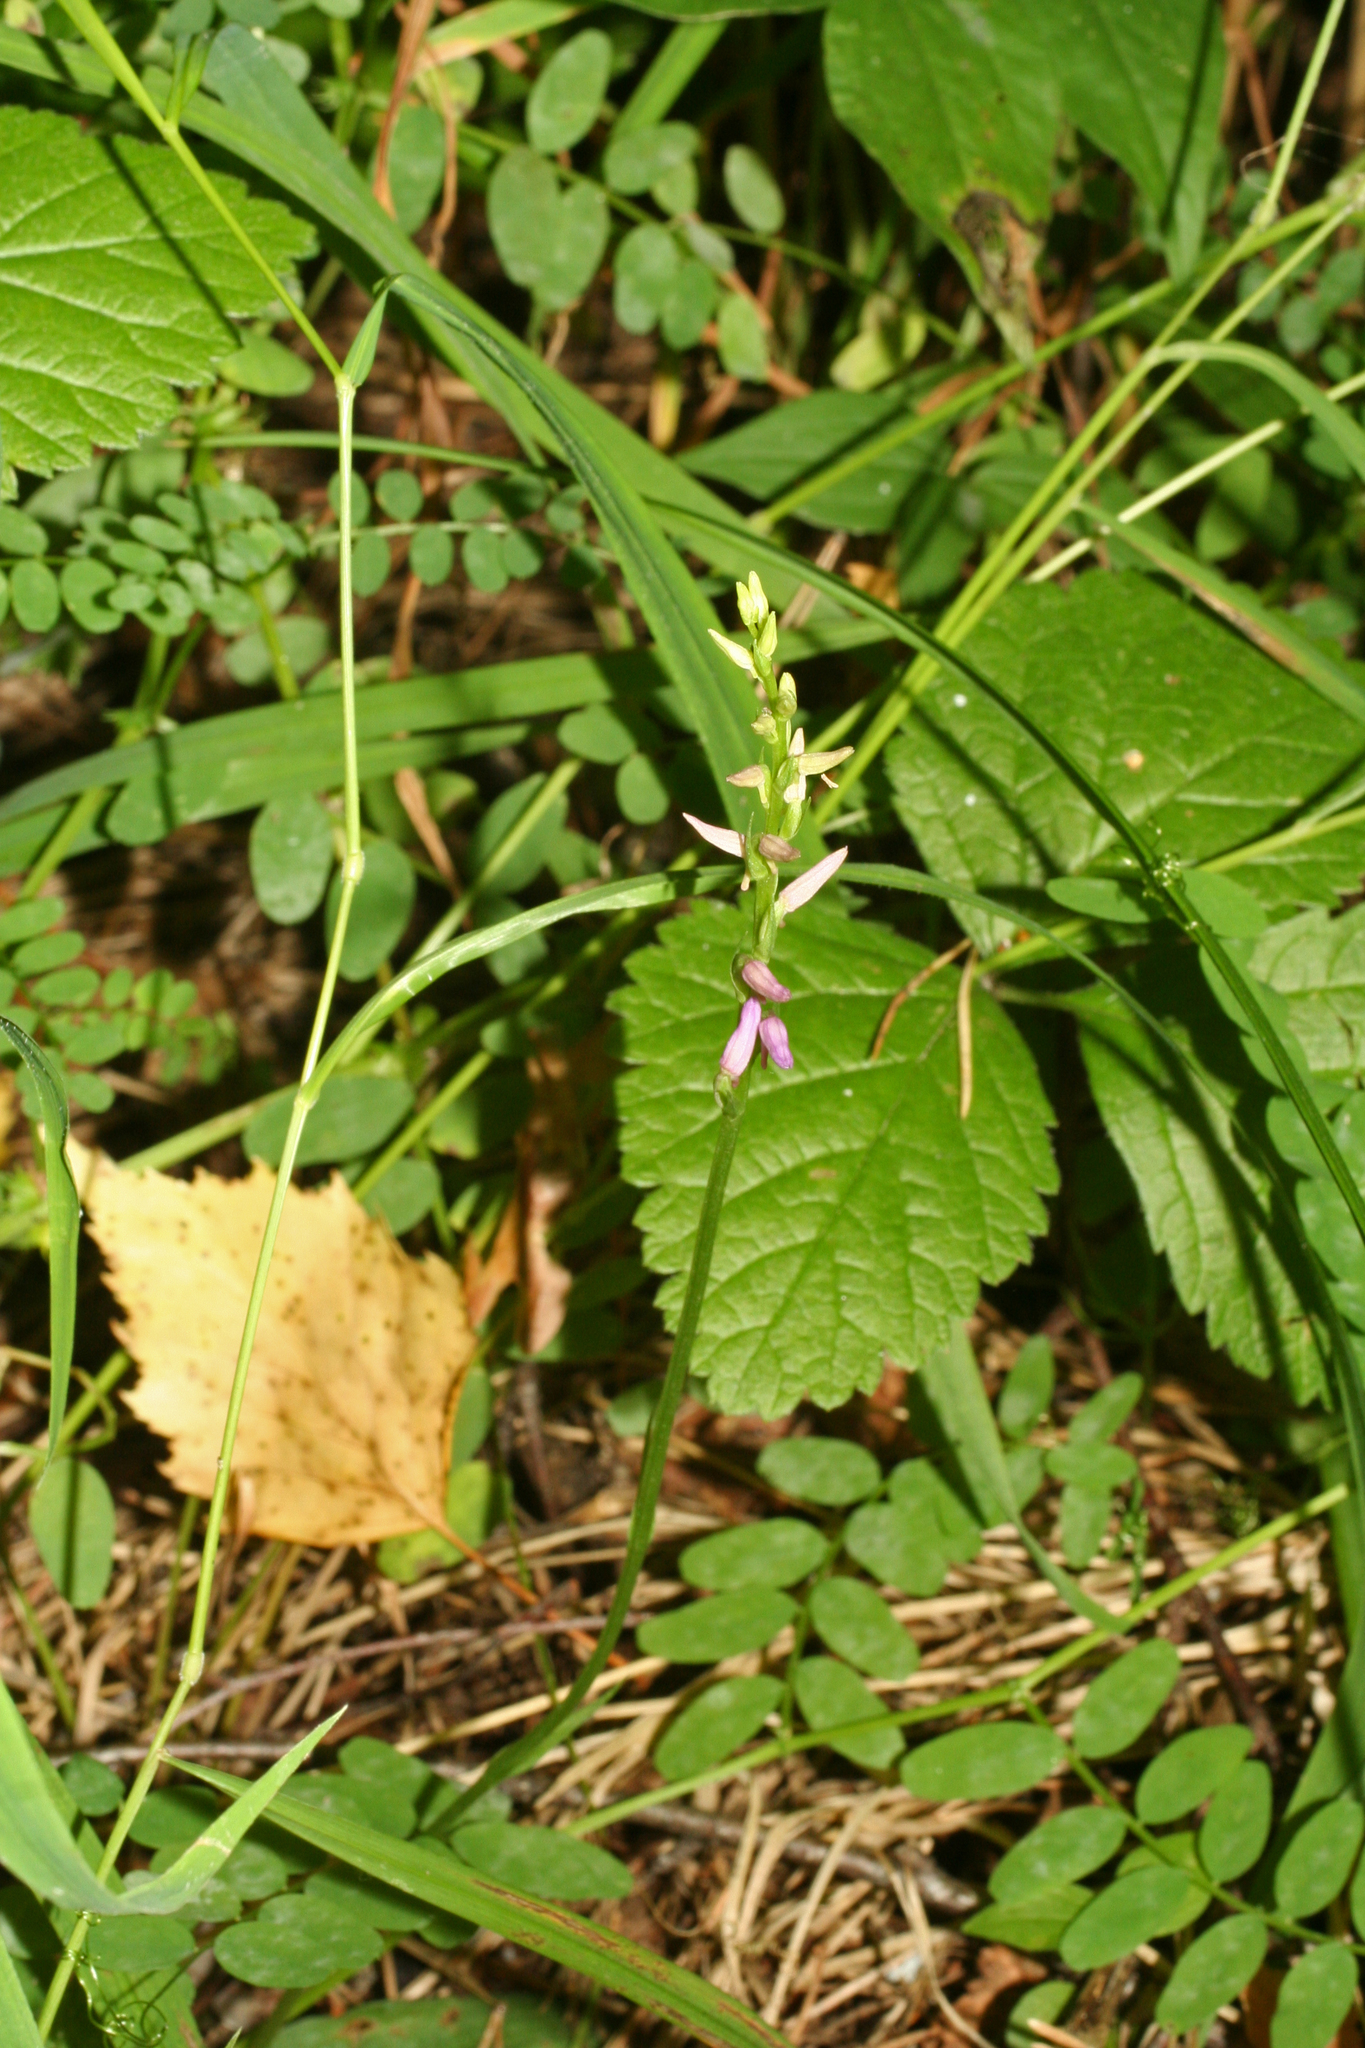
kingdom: Plantae
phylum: Tracheophyta
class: Liliopsida
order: Asparagales
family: Orchidaceae
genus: Hemipilia
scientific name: Hemipilia cucullata
